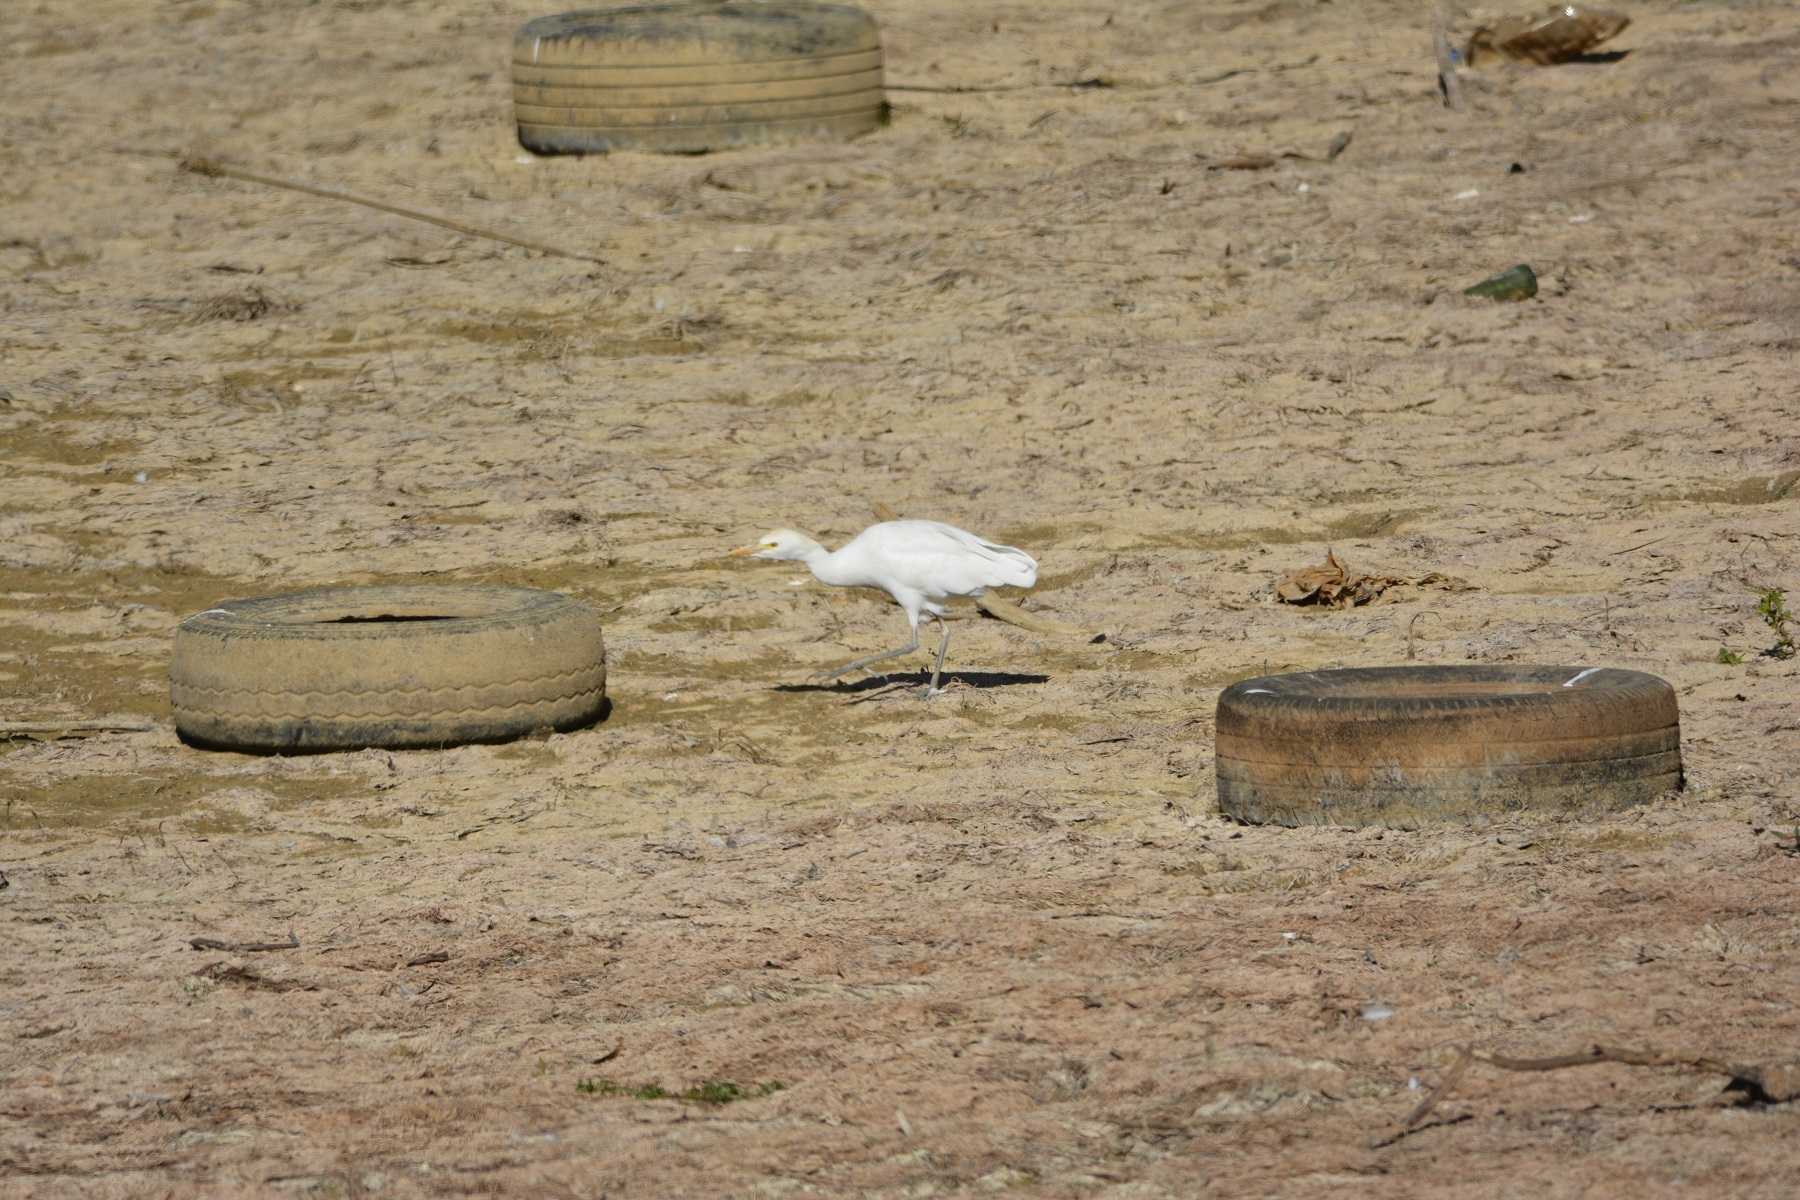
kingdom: Animalia
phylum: Chordata
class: Aves
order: Pelecaniformes
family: Ardeidae
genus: Bubulcus
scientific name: Bubulcus ibis
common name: Cattle egret
